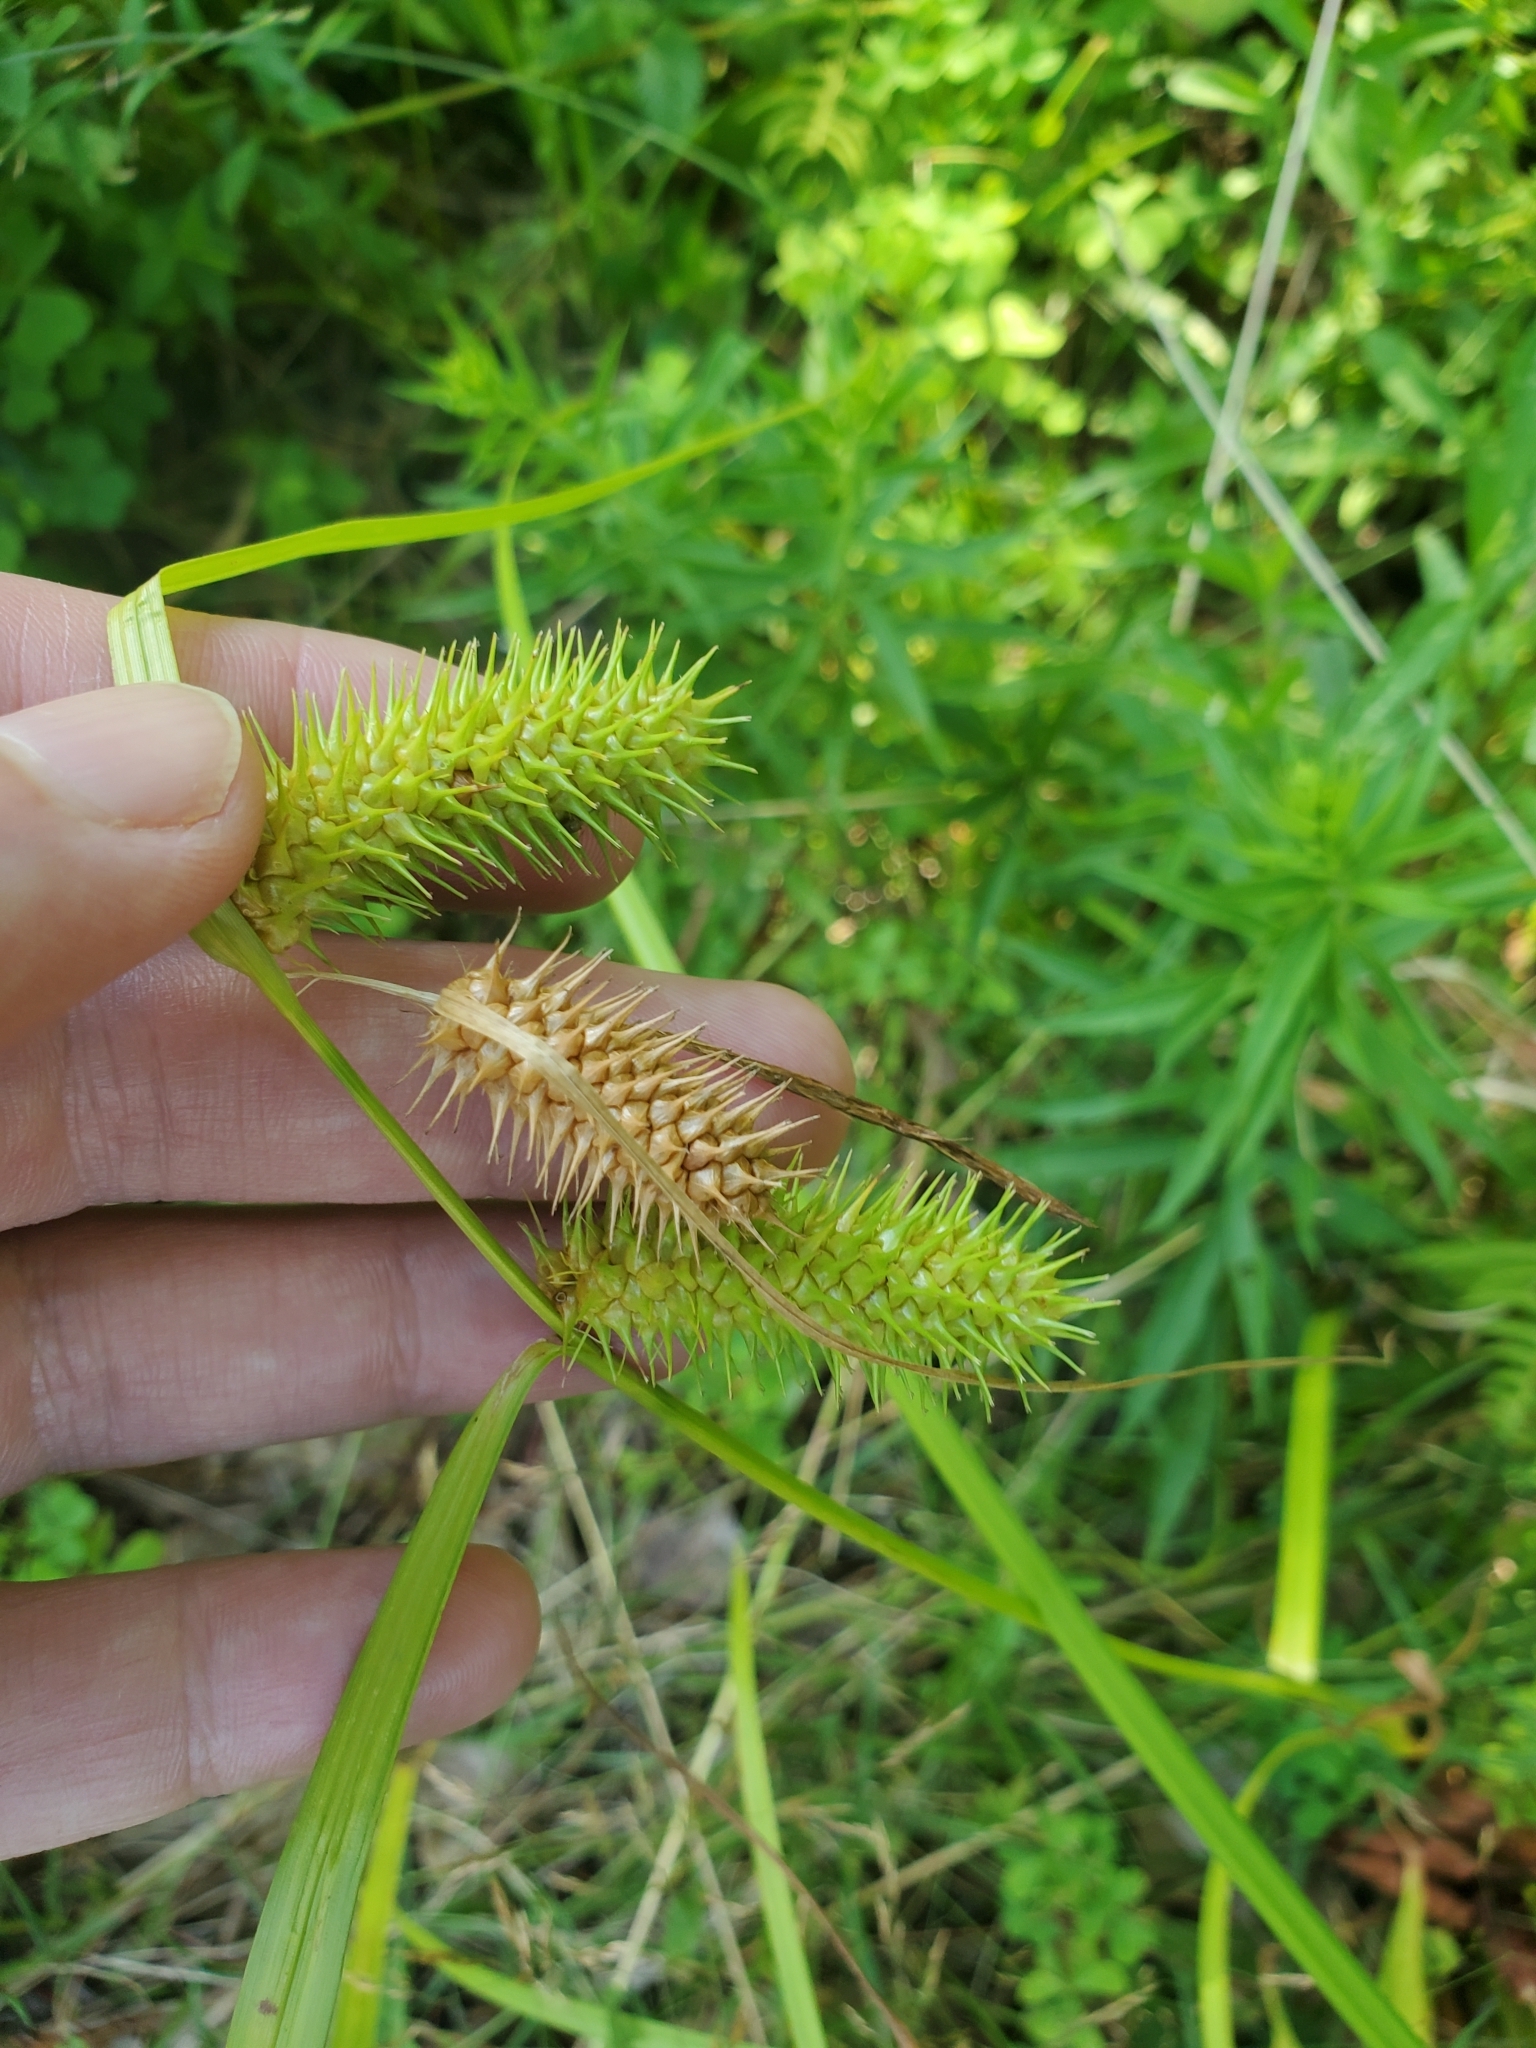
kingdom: Plantae
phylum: Tracheophyta
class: Liliopsida
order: Poales
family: Cyperaceae
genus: Carex
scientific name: Carex lurida
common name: Sallow sedge
